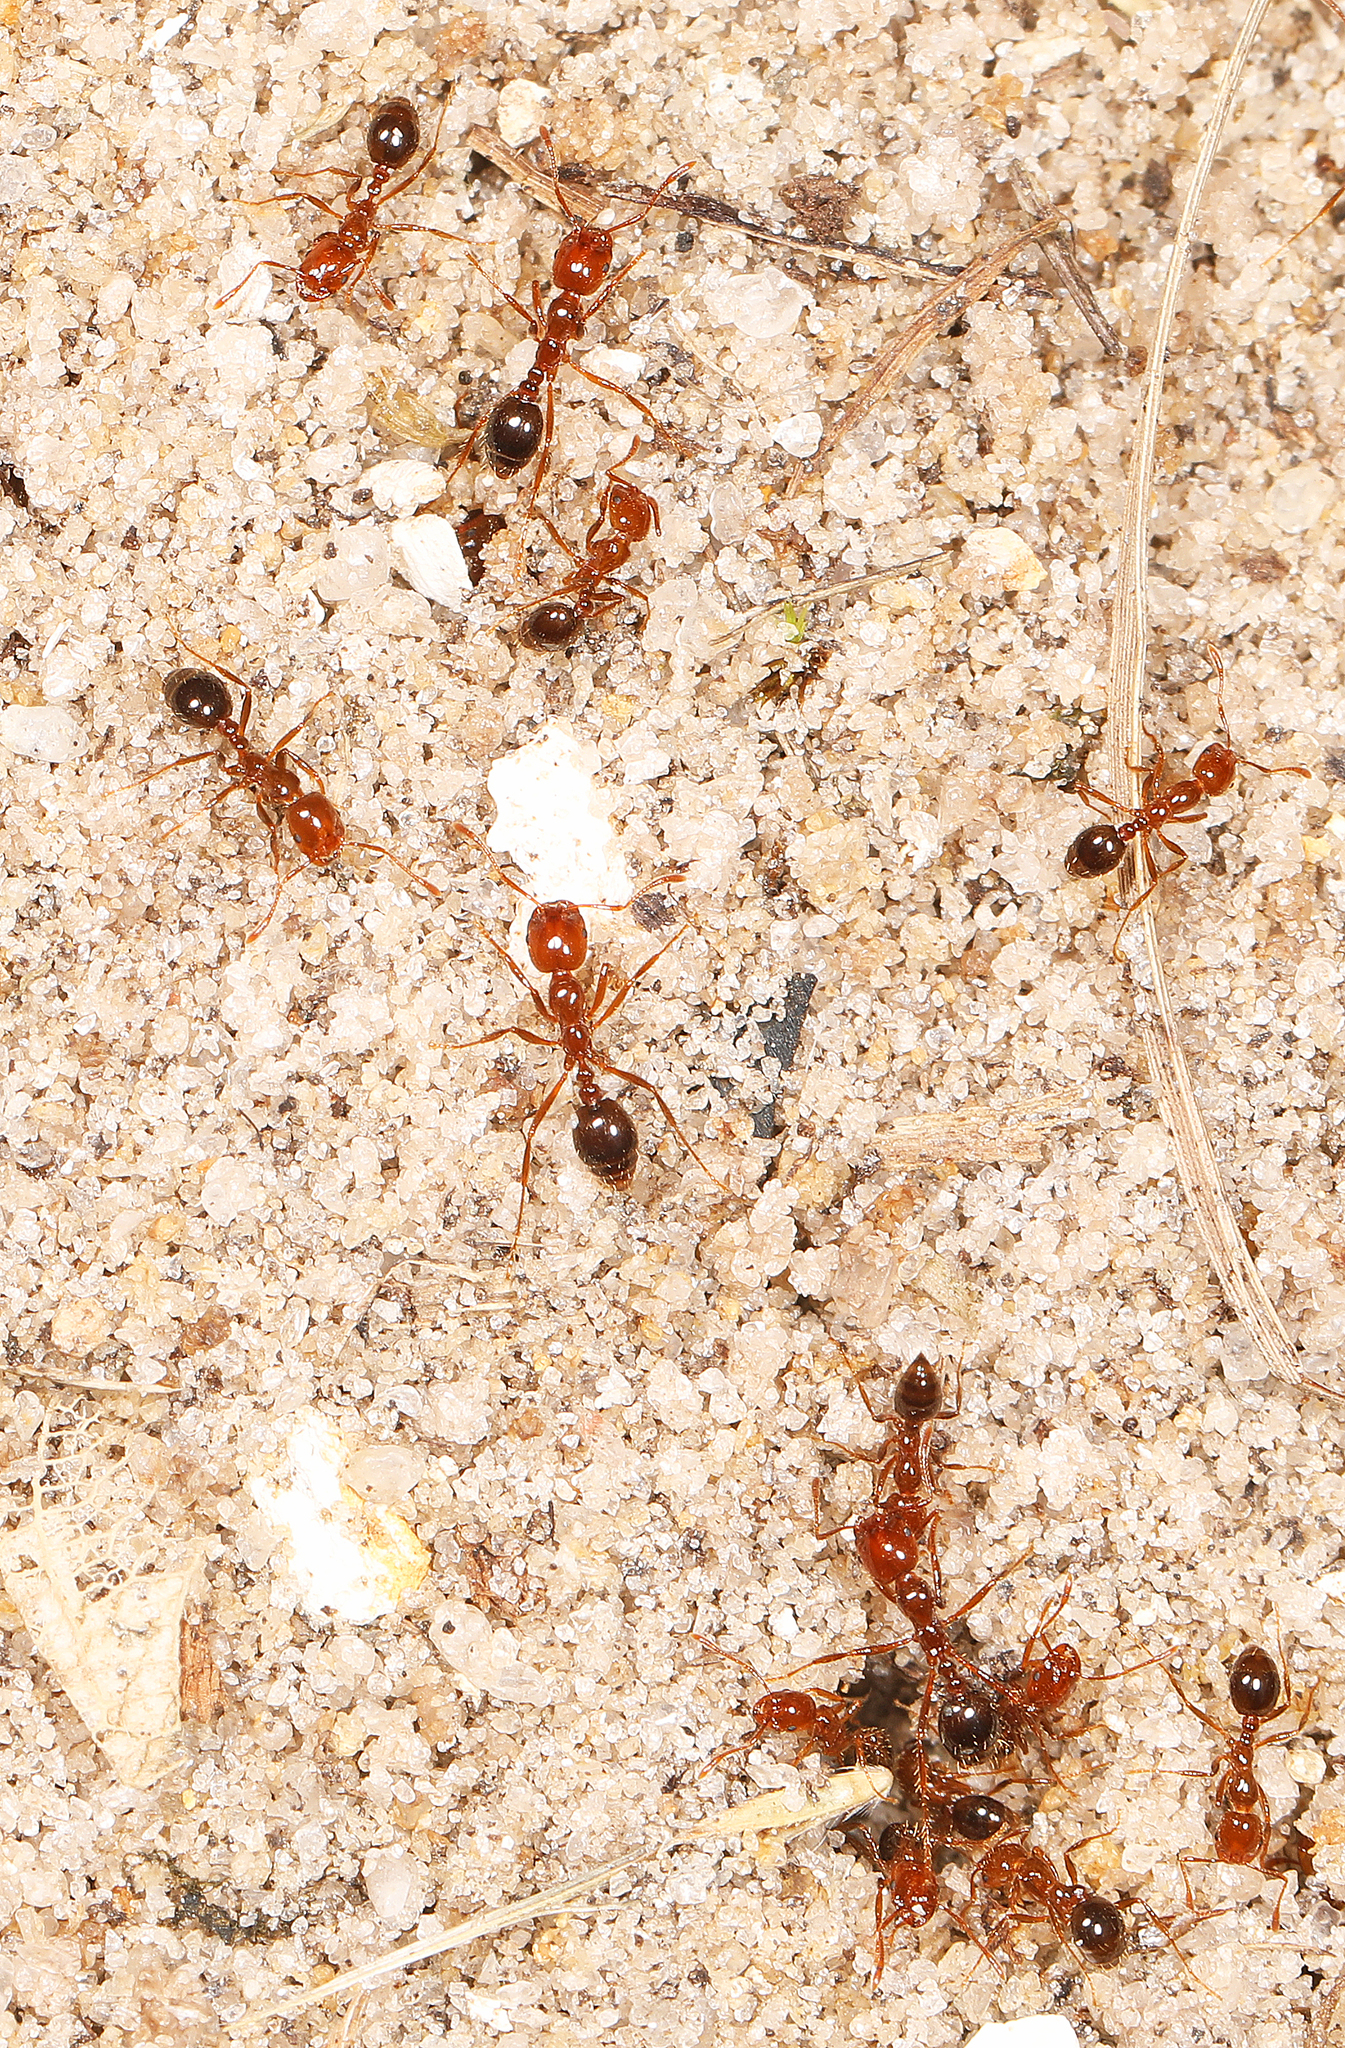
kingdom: Animalia
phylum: Arthropoda
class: Insecta
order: Hymenoptera
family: Formicidae
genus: Solenopsis
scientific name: Solenopsis invicta
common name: Red imported fire ant
